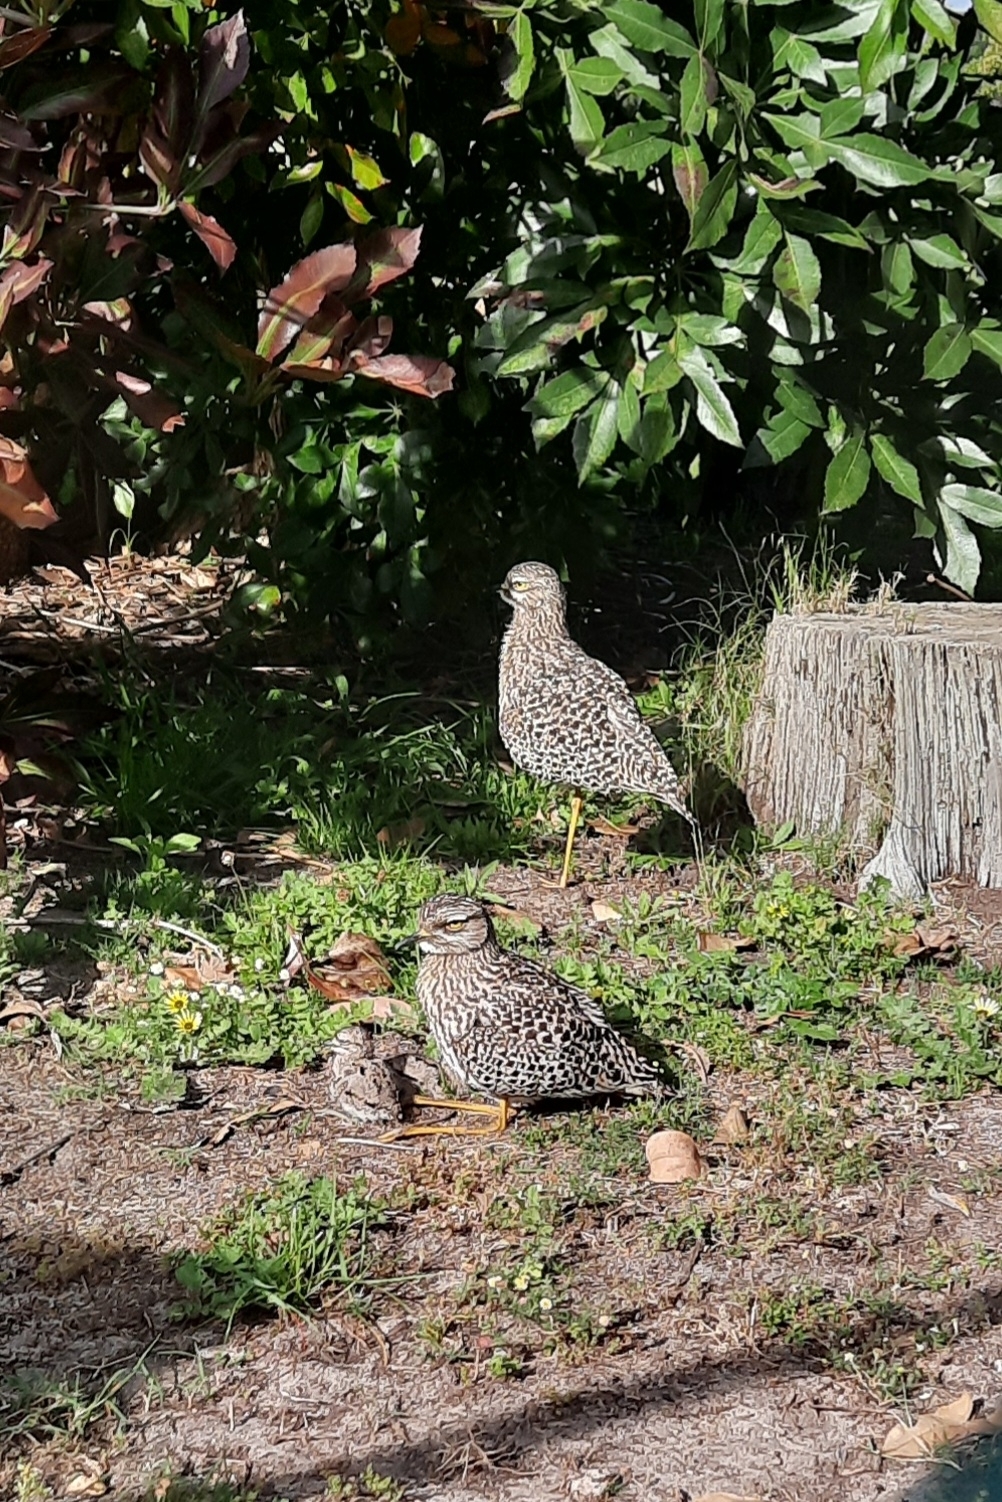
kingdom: Animalia
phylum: Chordata
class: Aves
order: Charadriiformes
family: Burhinidae
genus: Burhinus
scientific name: Burhinus capensis
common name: Spotted thick-knee
